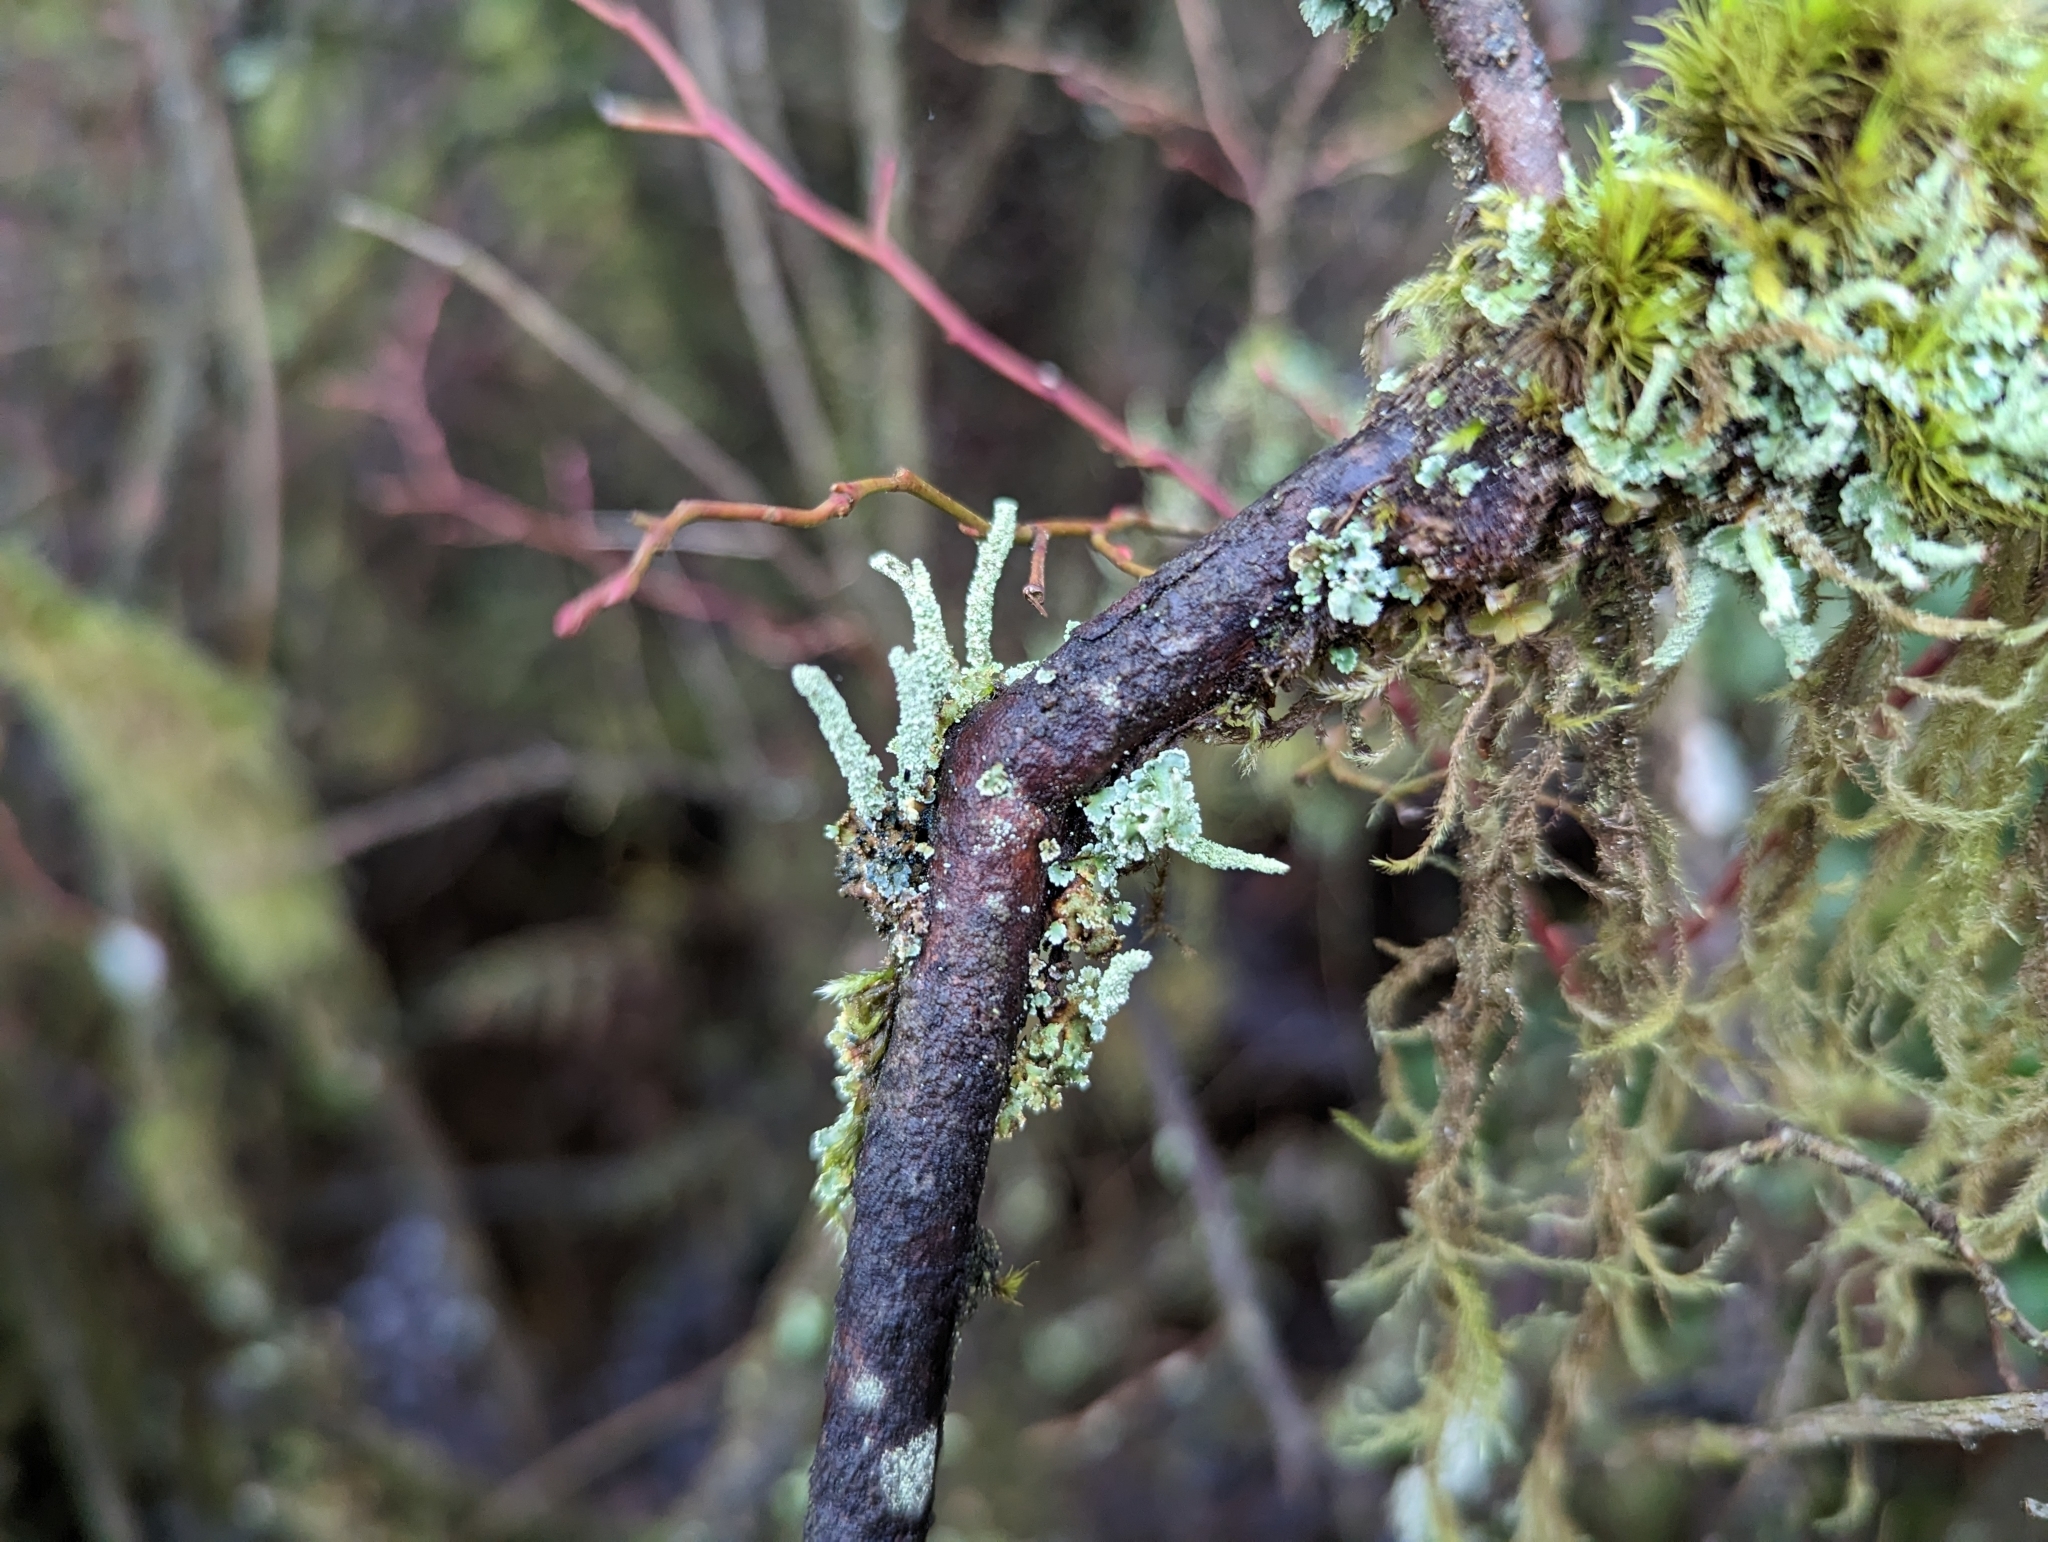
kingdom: Fungi
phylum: Ascomycota
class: Lecanoromycetes
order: Lecanorales
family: Cladoniaceae
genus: Cladonia
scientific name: Cladonia squamosa
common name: Dragon horn
